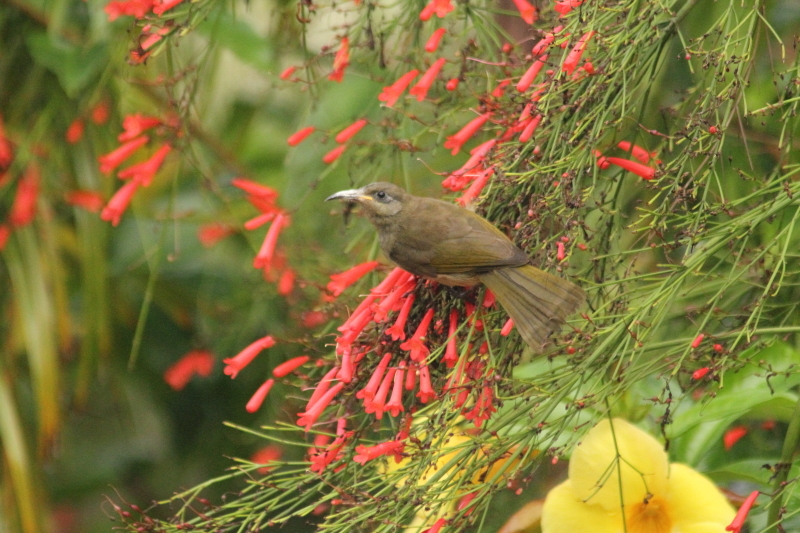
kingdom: Animalia
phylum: Chordata
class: Aves
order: Passeriformes
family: Meliphagidae
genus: Lichmera
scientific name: Lichmera incana
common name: Grey-eared honeyeater
